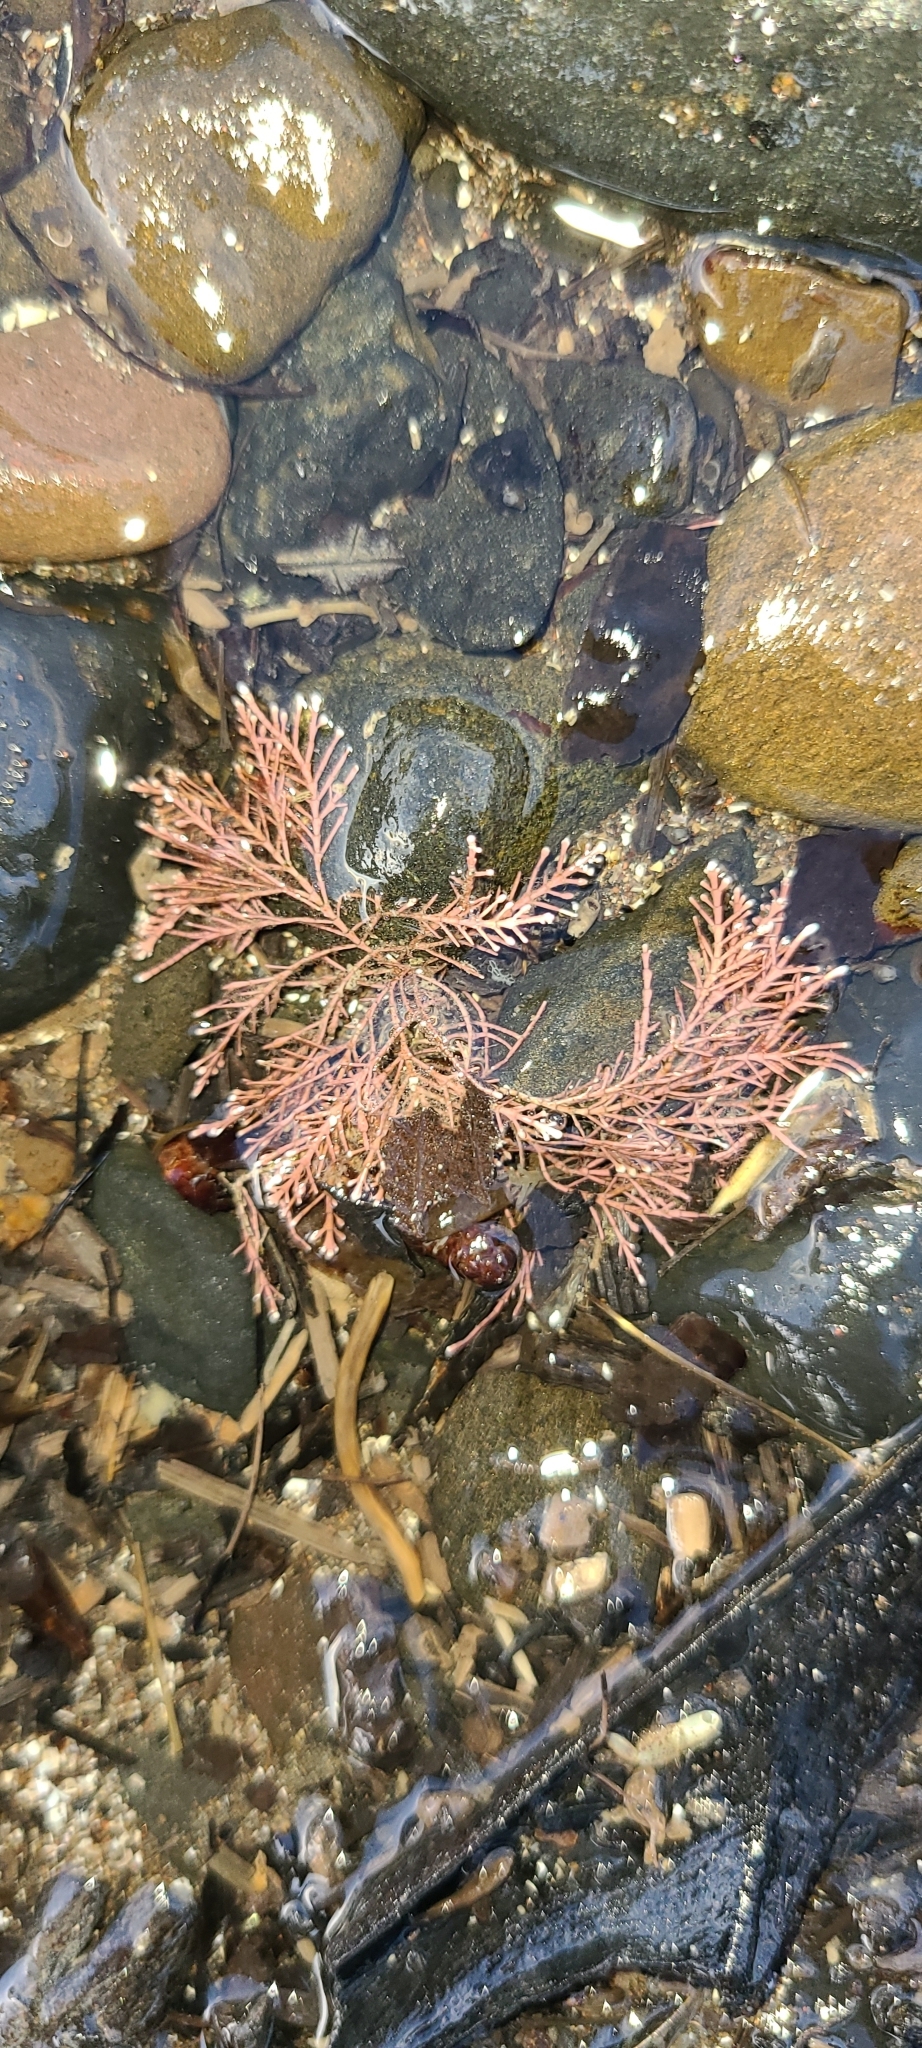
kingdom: Plantae
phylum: Rhodophyta
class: Florideophyceae
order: Corallinales
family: Corallinaceae
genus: Corallina
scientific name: Corallina officinalis
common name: Coral weed
